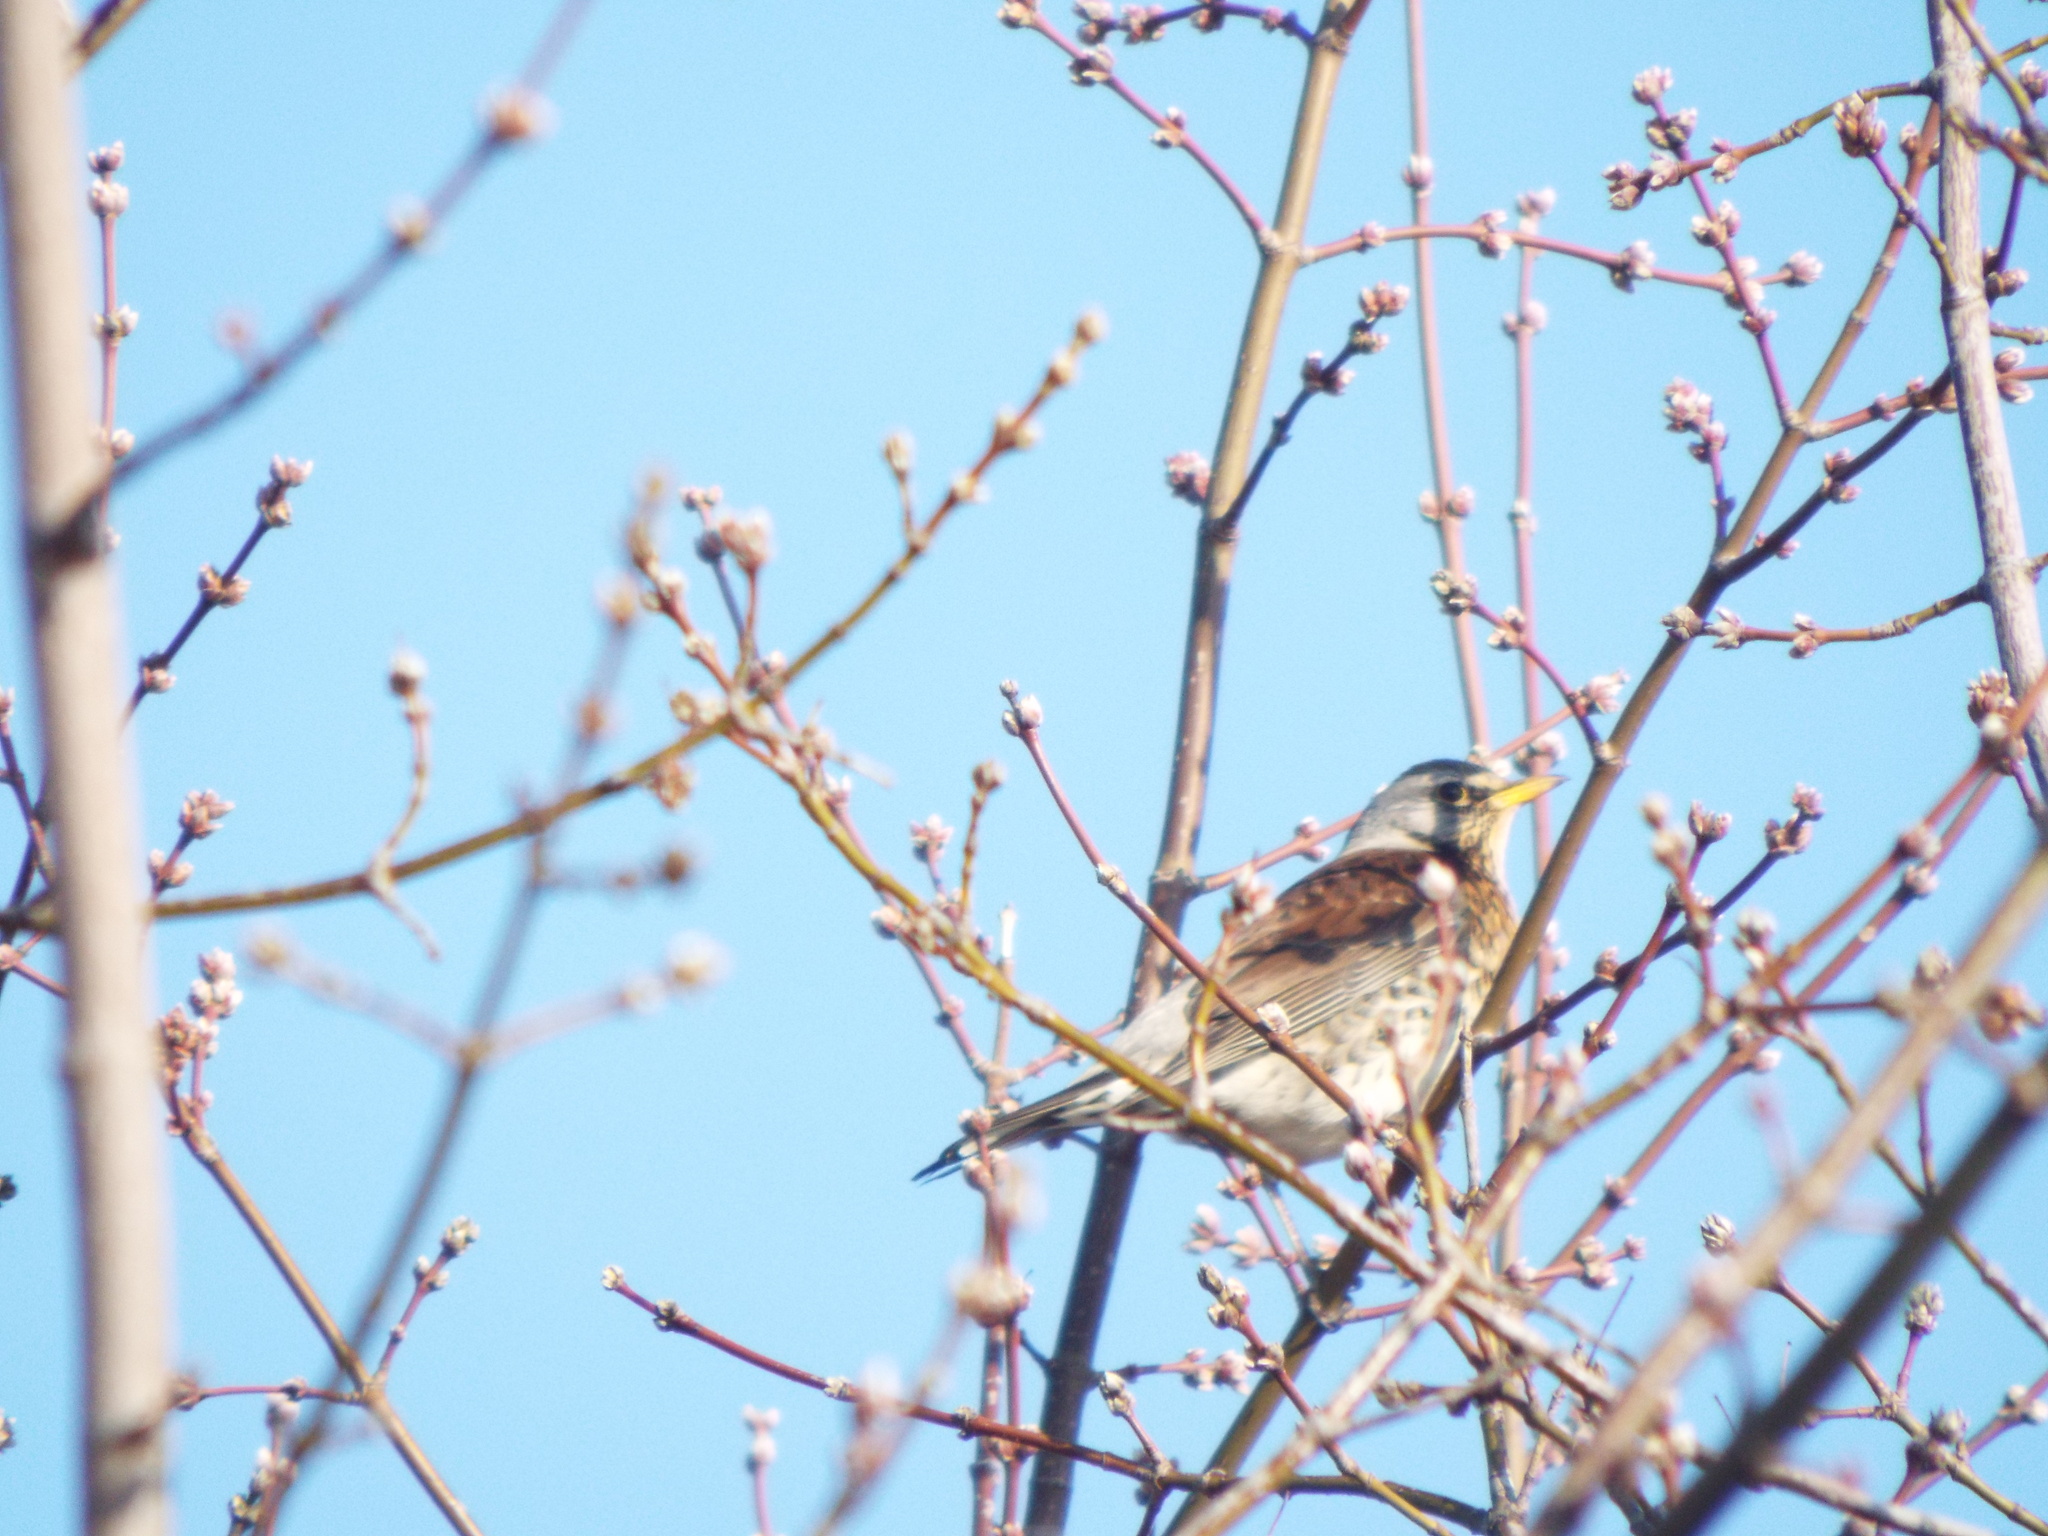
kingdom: Animalia
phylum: Chordata
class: Aves
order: Passeriformes
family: Turdidae
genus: Turdus
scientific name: Turdus pilaris
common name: Fieldfare
